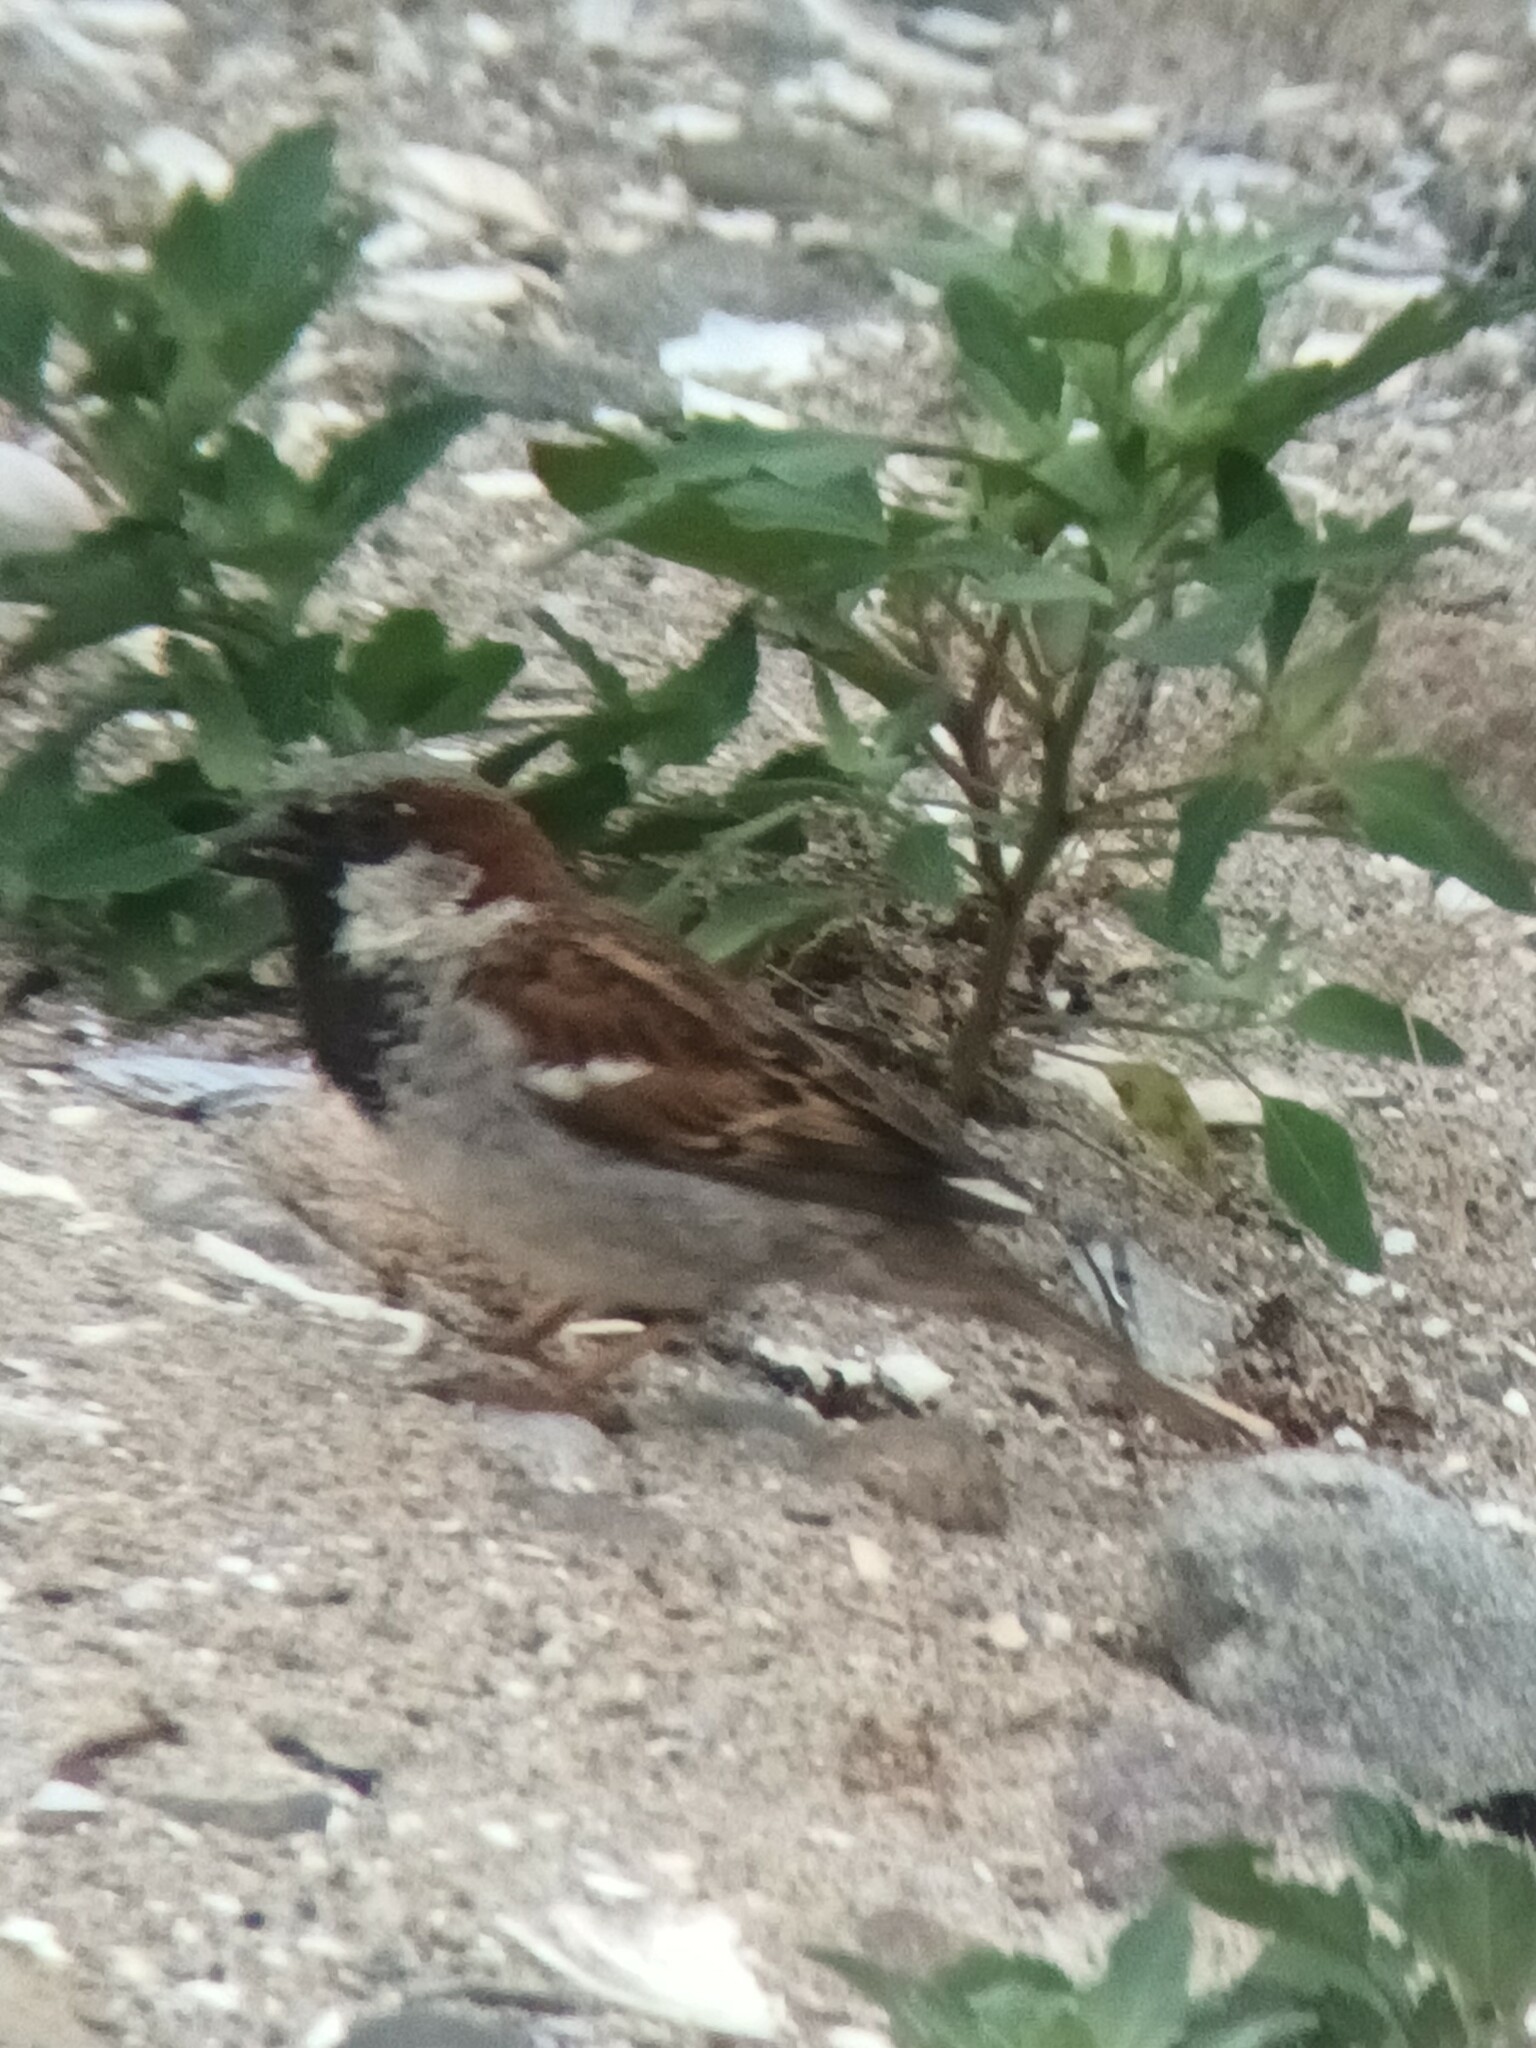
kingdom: Animalia
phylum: Chordata
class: Aves
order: Passeriformes
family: Passeridae
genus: Passer
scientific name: Passer domesticus
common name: House sparrow
